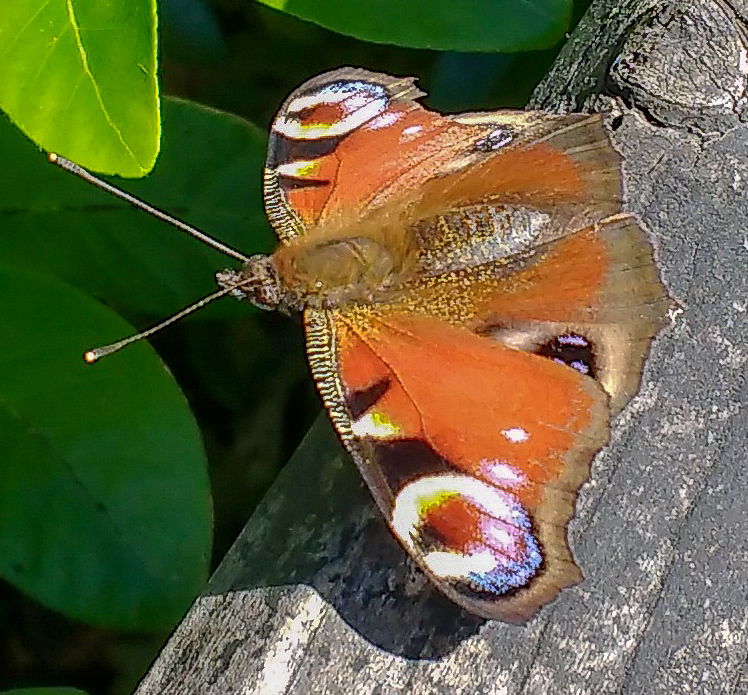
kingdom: Animalia
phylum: Arthropoda
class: Insecta
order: Lepidoptera
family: Nymphalidae
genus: Aglais
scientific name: Aglais io
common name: Peacock
